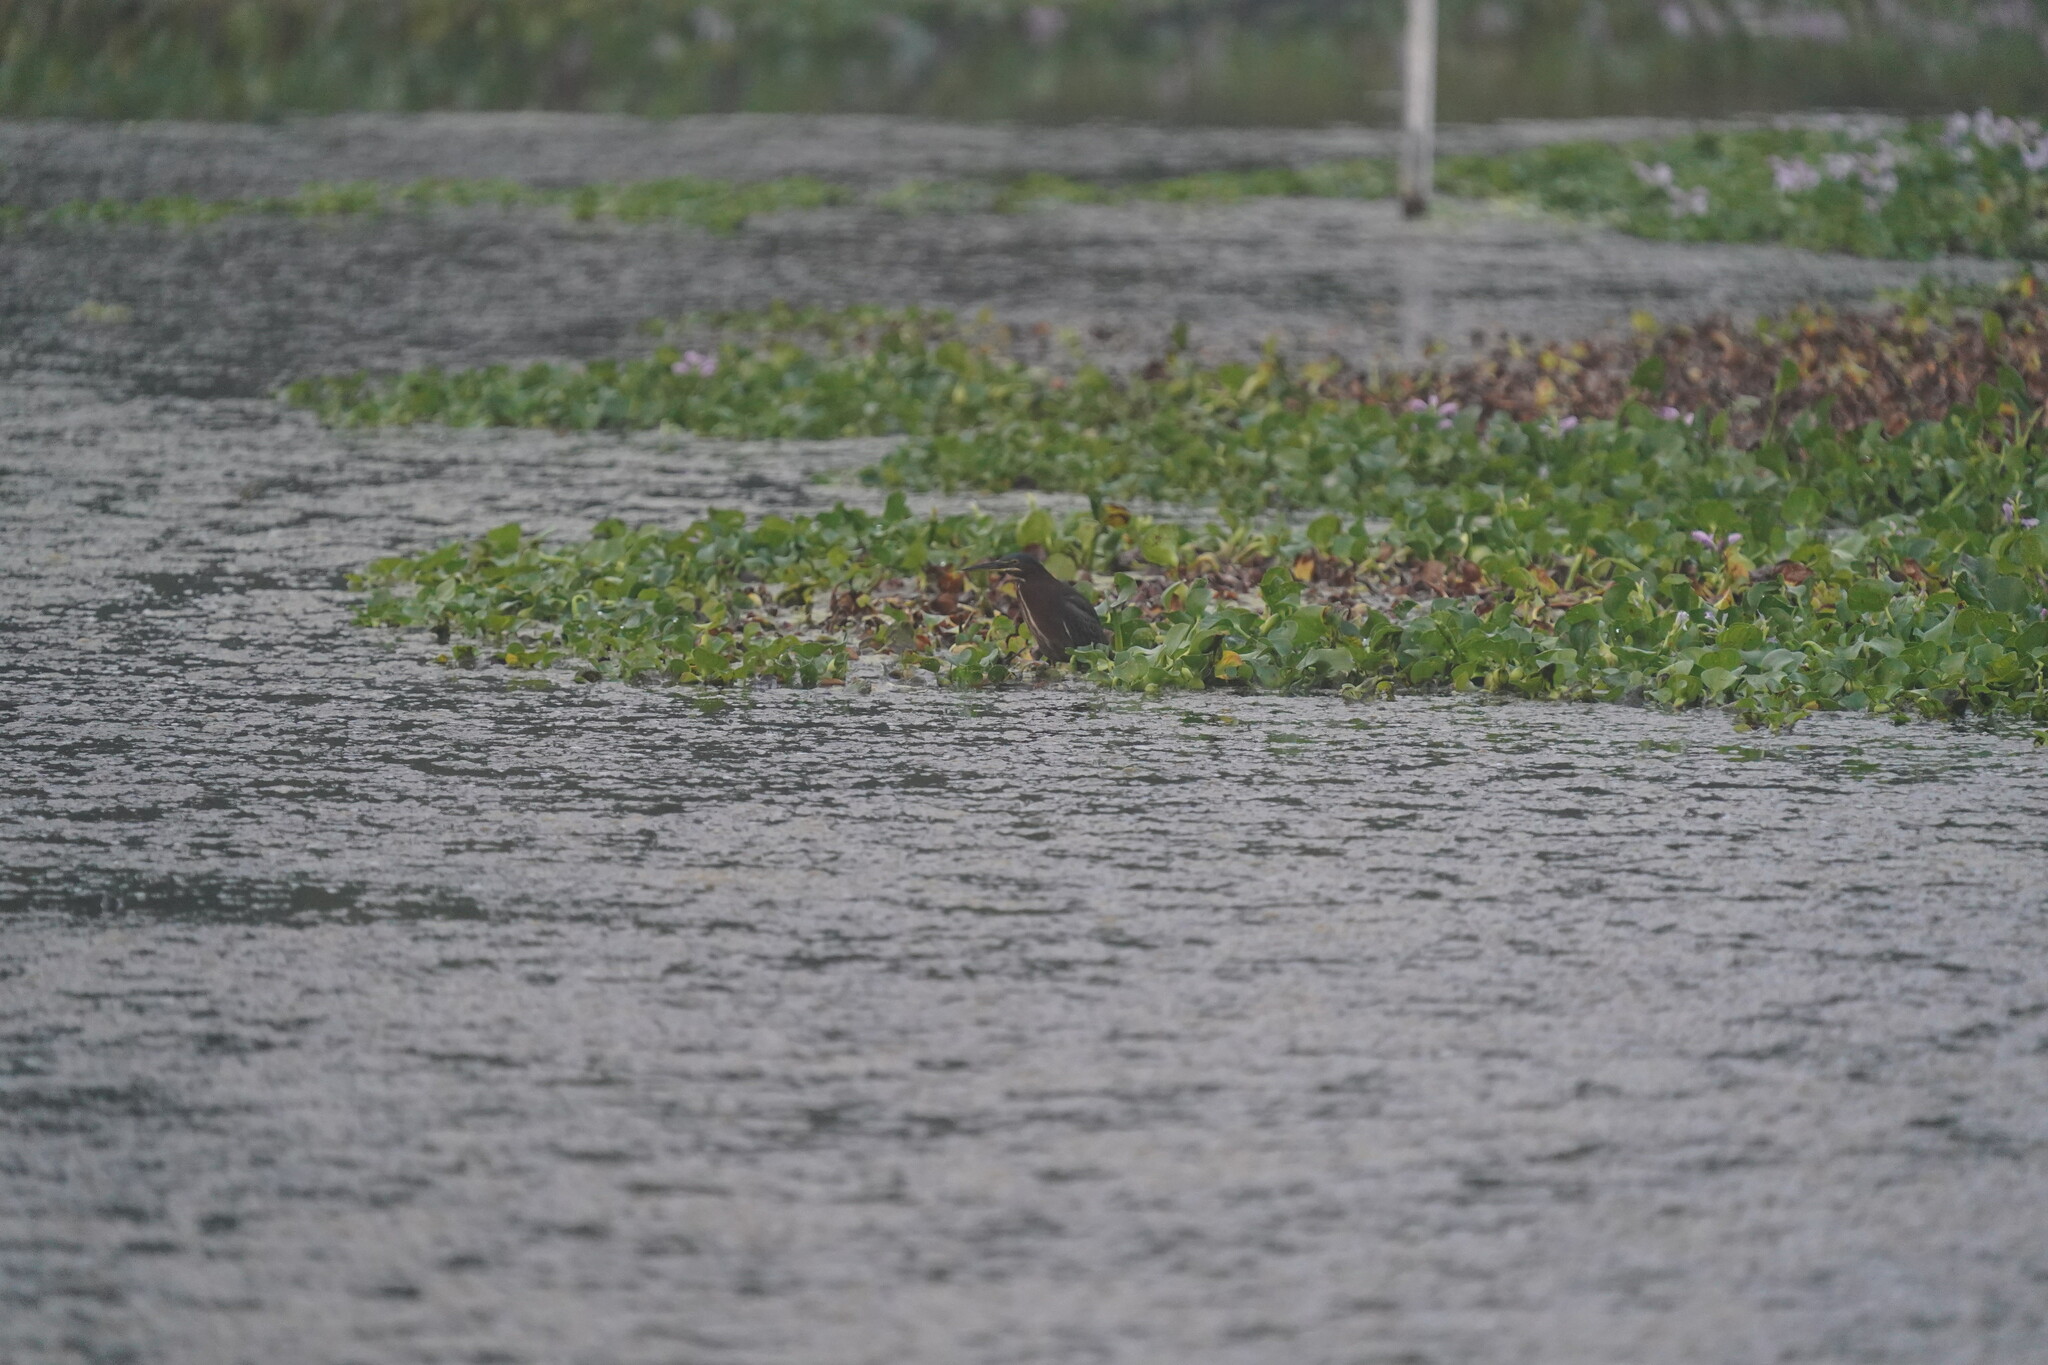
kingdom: Animalia
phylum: Chordata
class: Aves
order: Pelecaniformes
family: Ardeidae
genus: Butorides
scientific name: Butorides virescens
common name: Green heron
